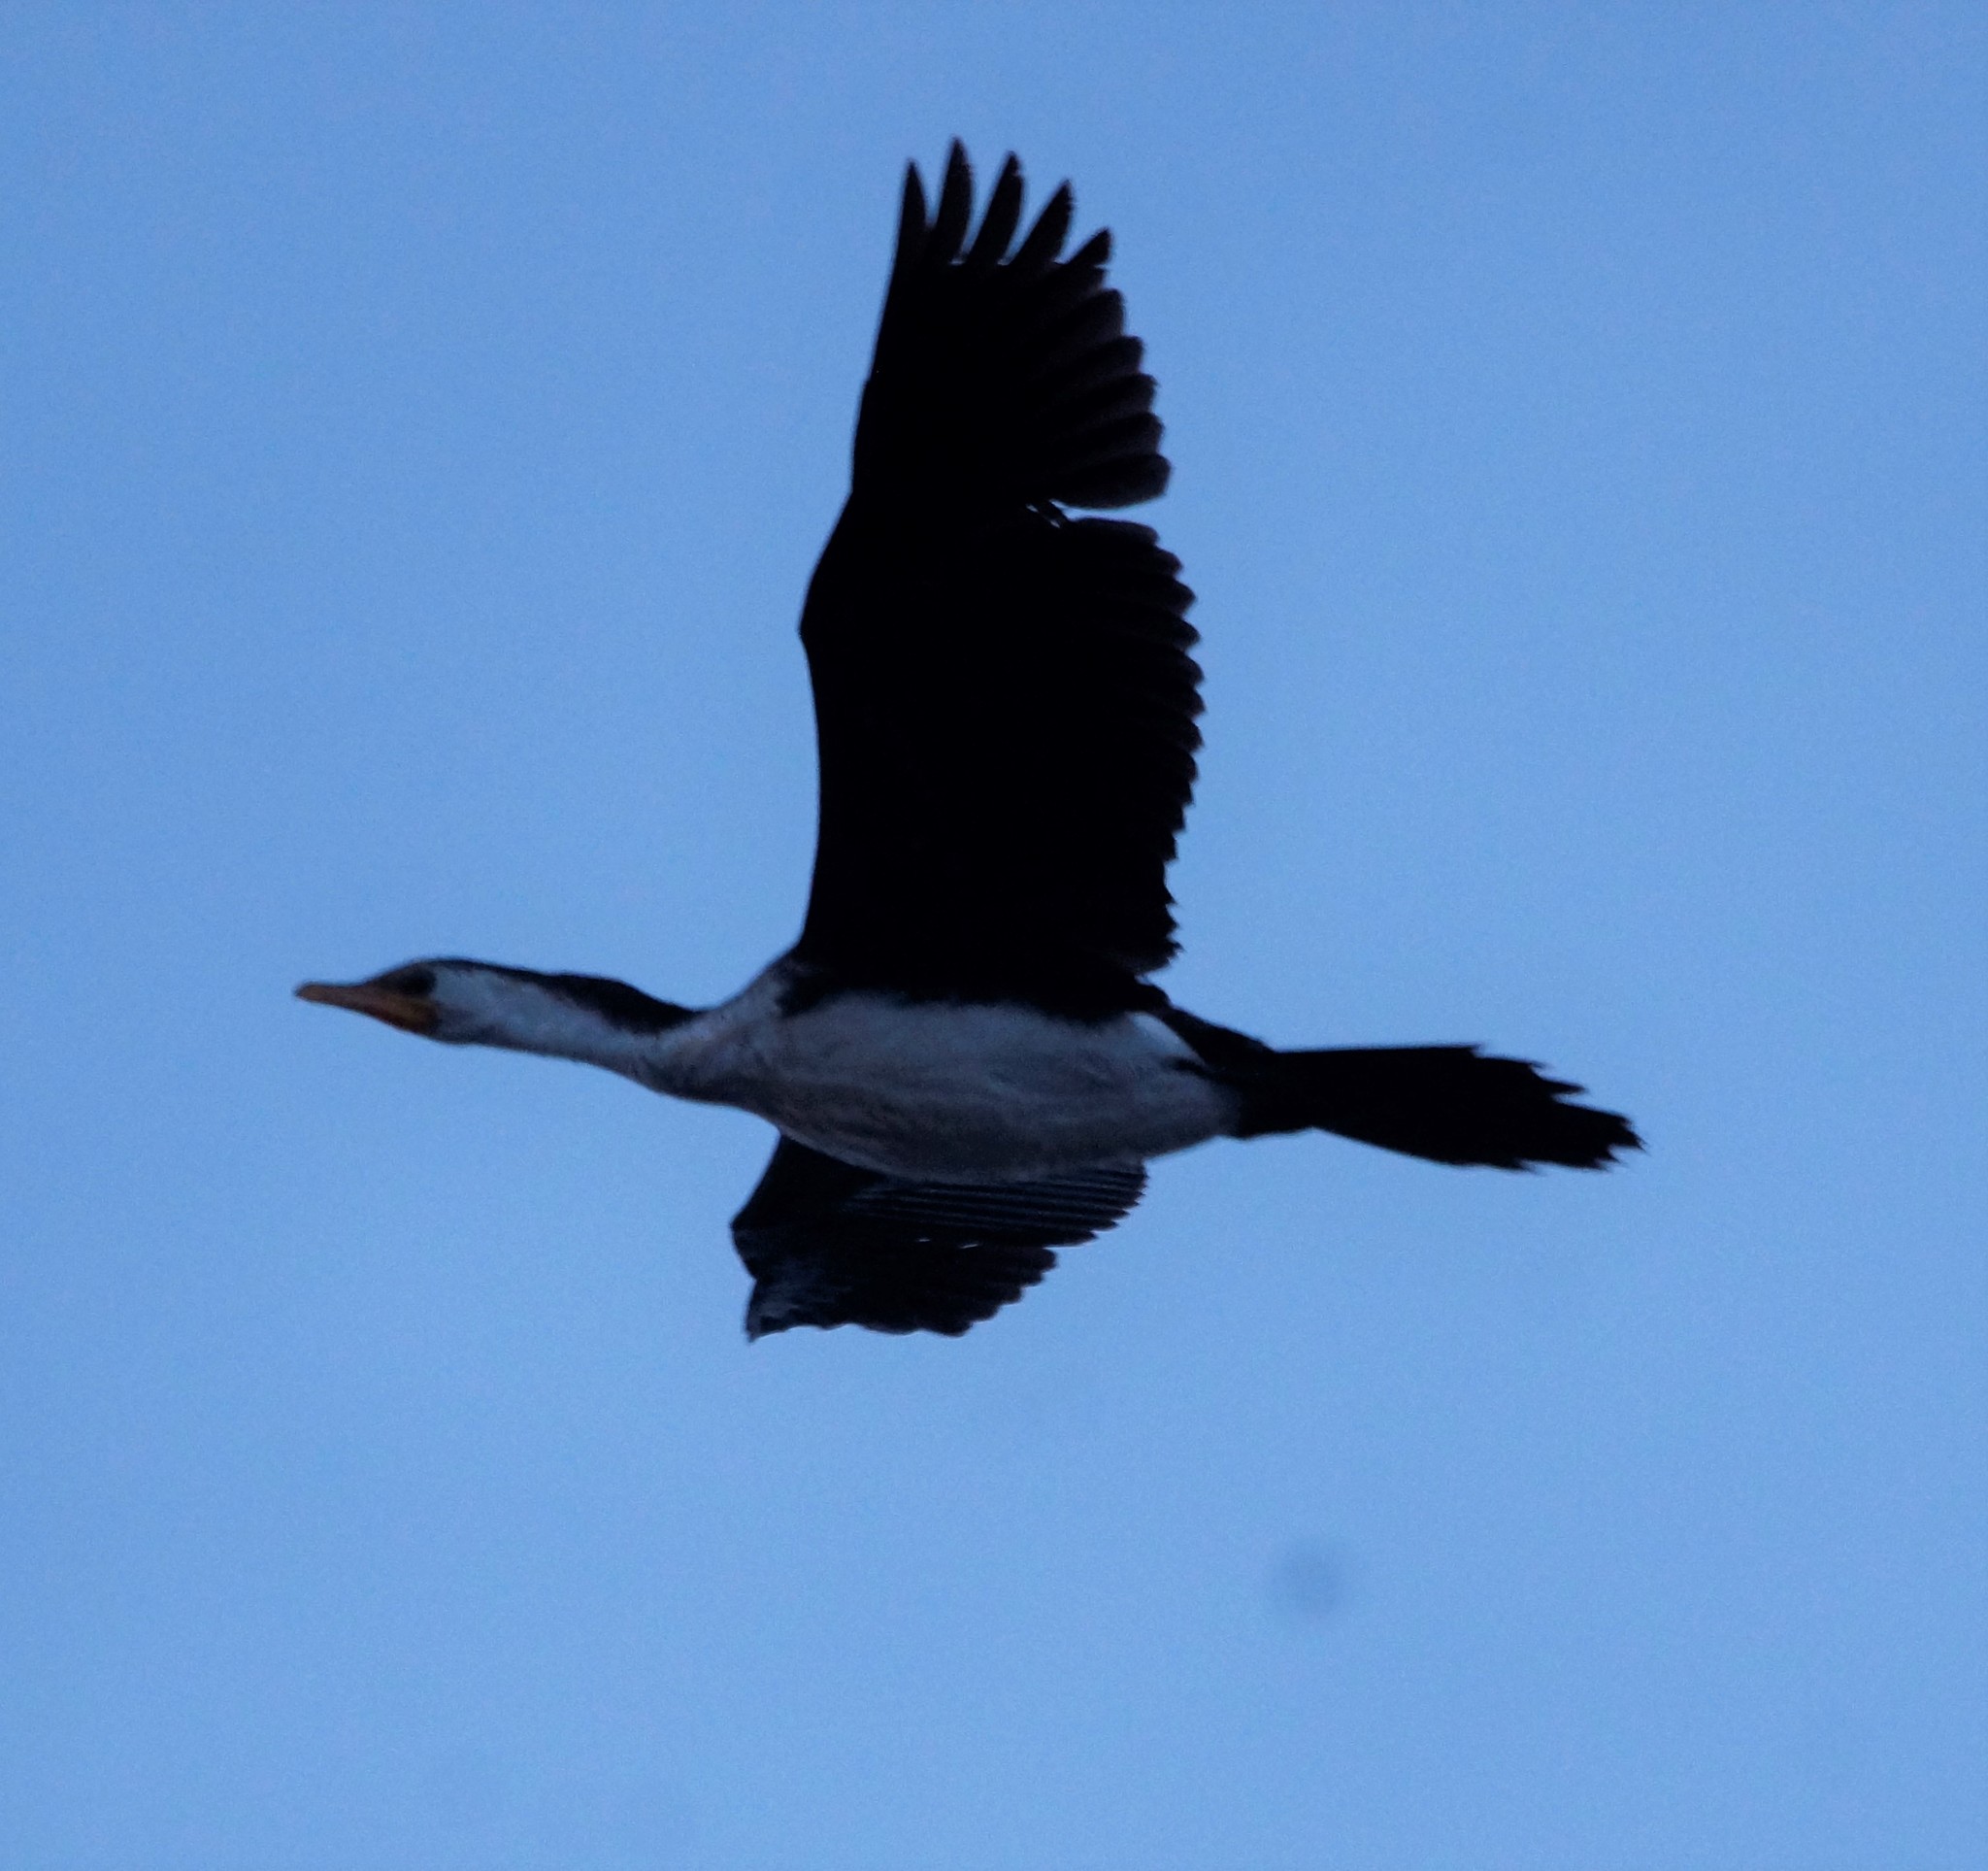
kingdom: Animalia
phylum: Chordata
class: Aves
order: Suliformes
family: Phalacrocoracidae
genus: Microcarbo
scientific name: Microcarbo melanoleucos
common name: Little pied cormorant
